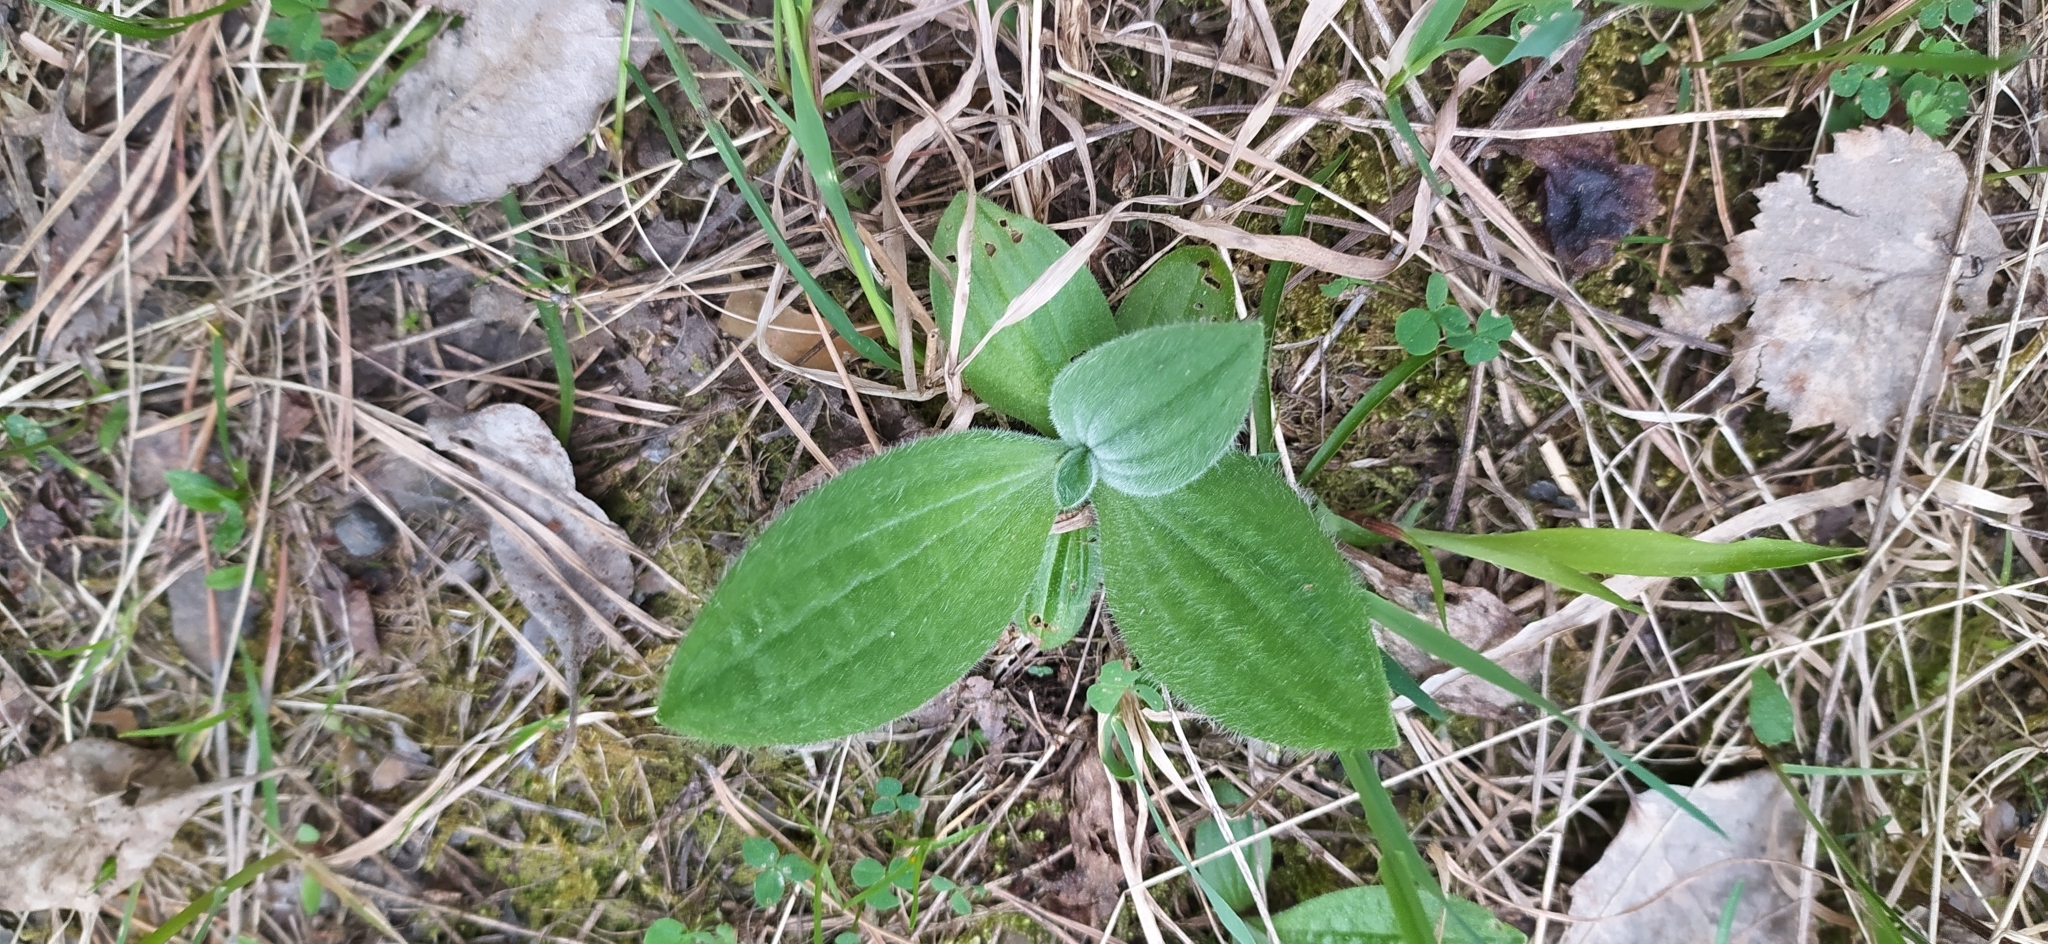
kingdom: Plantae
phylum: Tracheophyta
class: Magnoliopsida
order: Lamiales
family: Plantaginaceae
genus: Plantago
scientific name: Plantago media
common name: Hoary plantain
